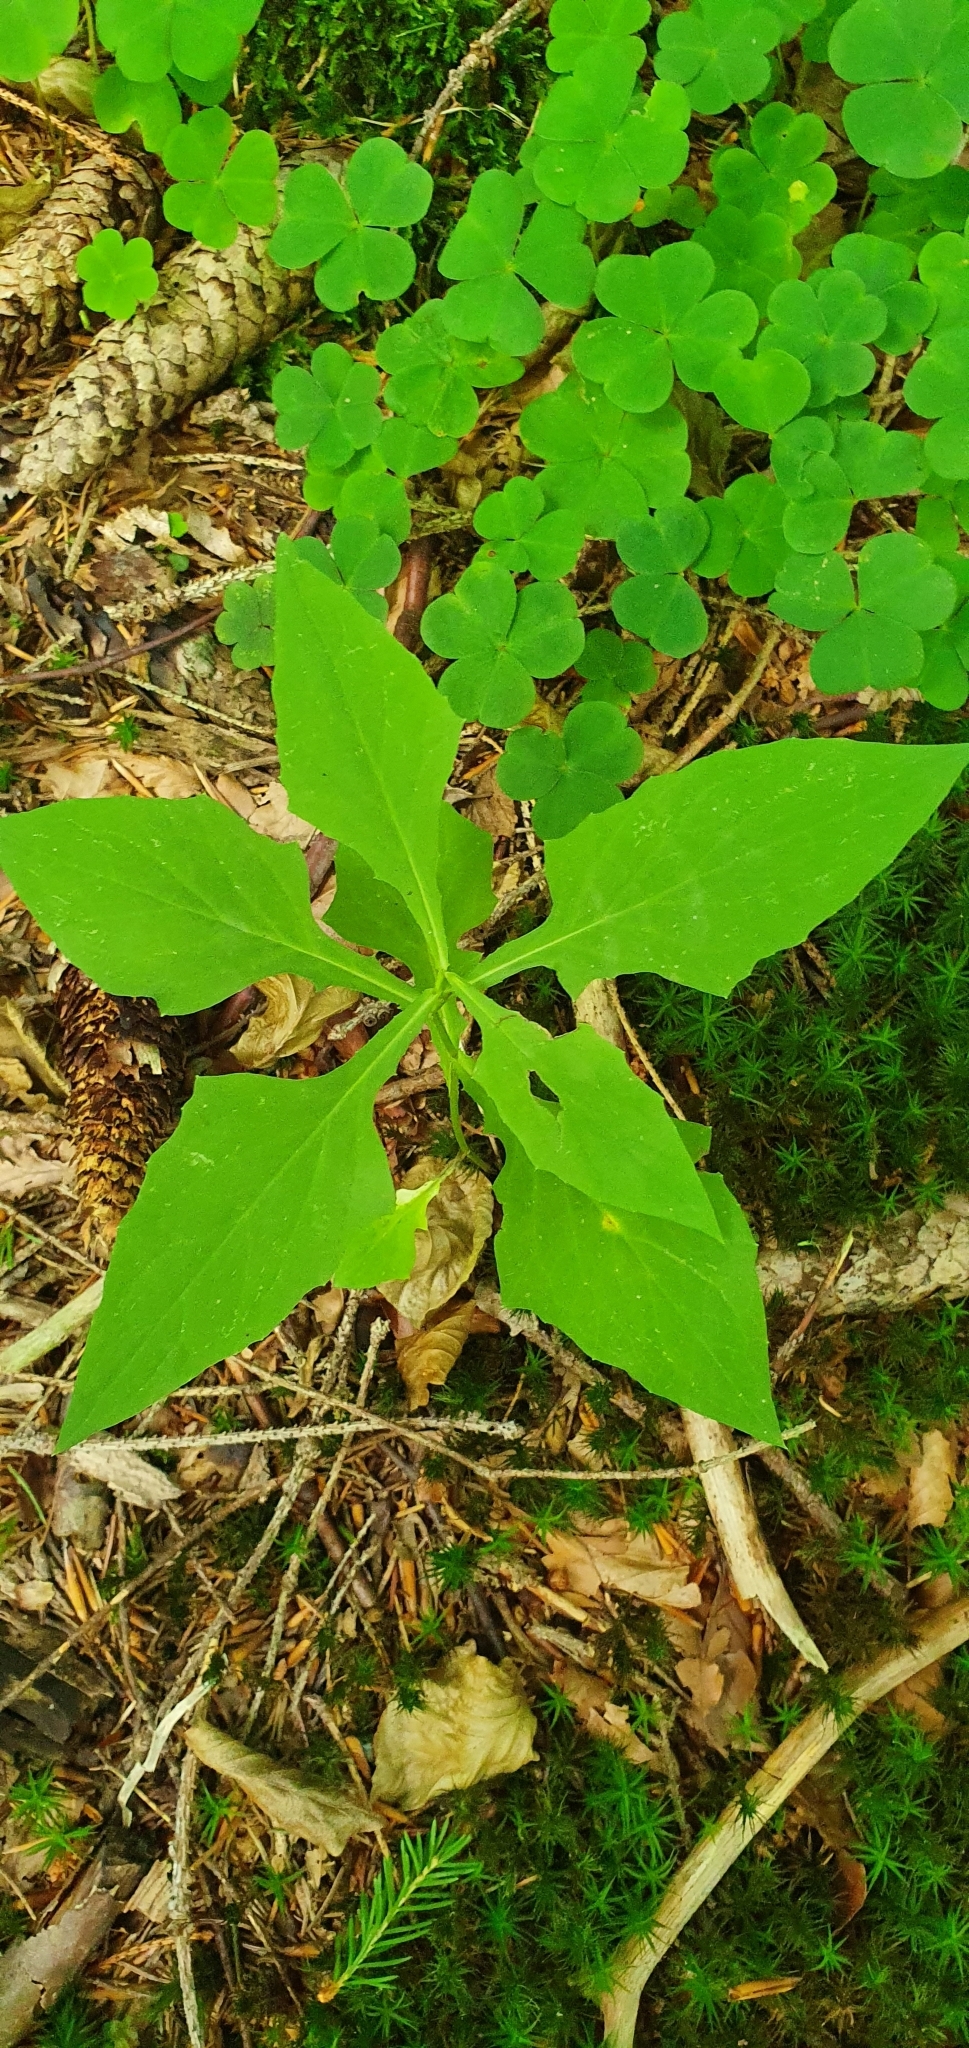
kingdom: Plantae
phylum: Tracheophyta
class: Magnoliopsida
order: Asterales
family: Asteraceae
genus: Prenanthes
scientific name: Prenanthes purpurea
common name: Purple lettuce
